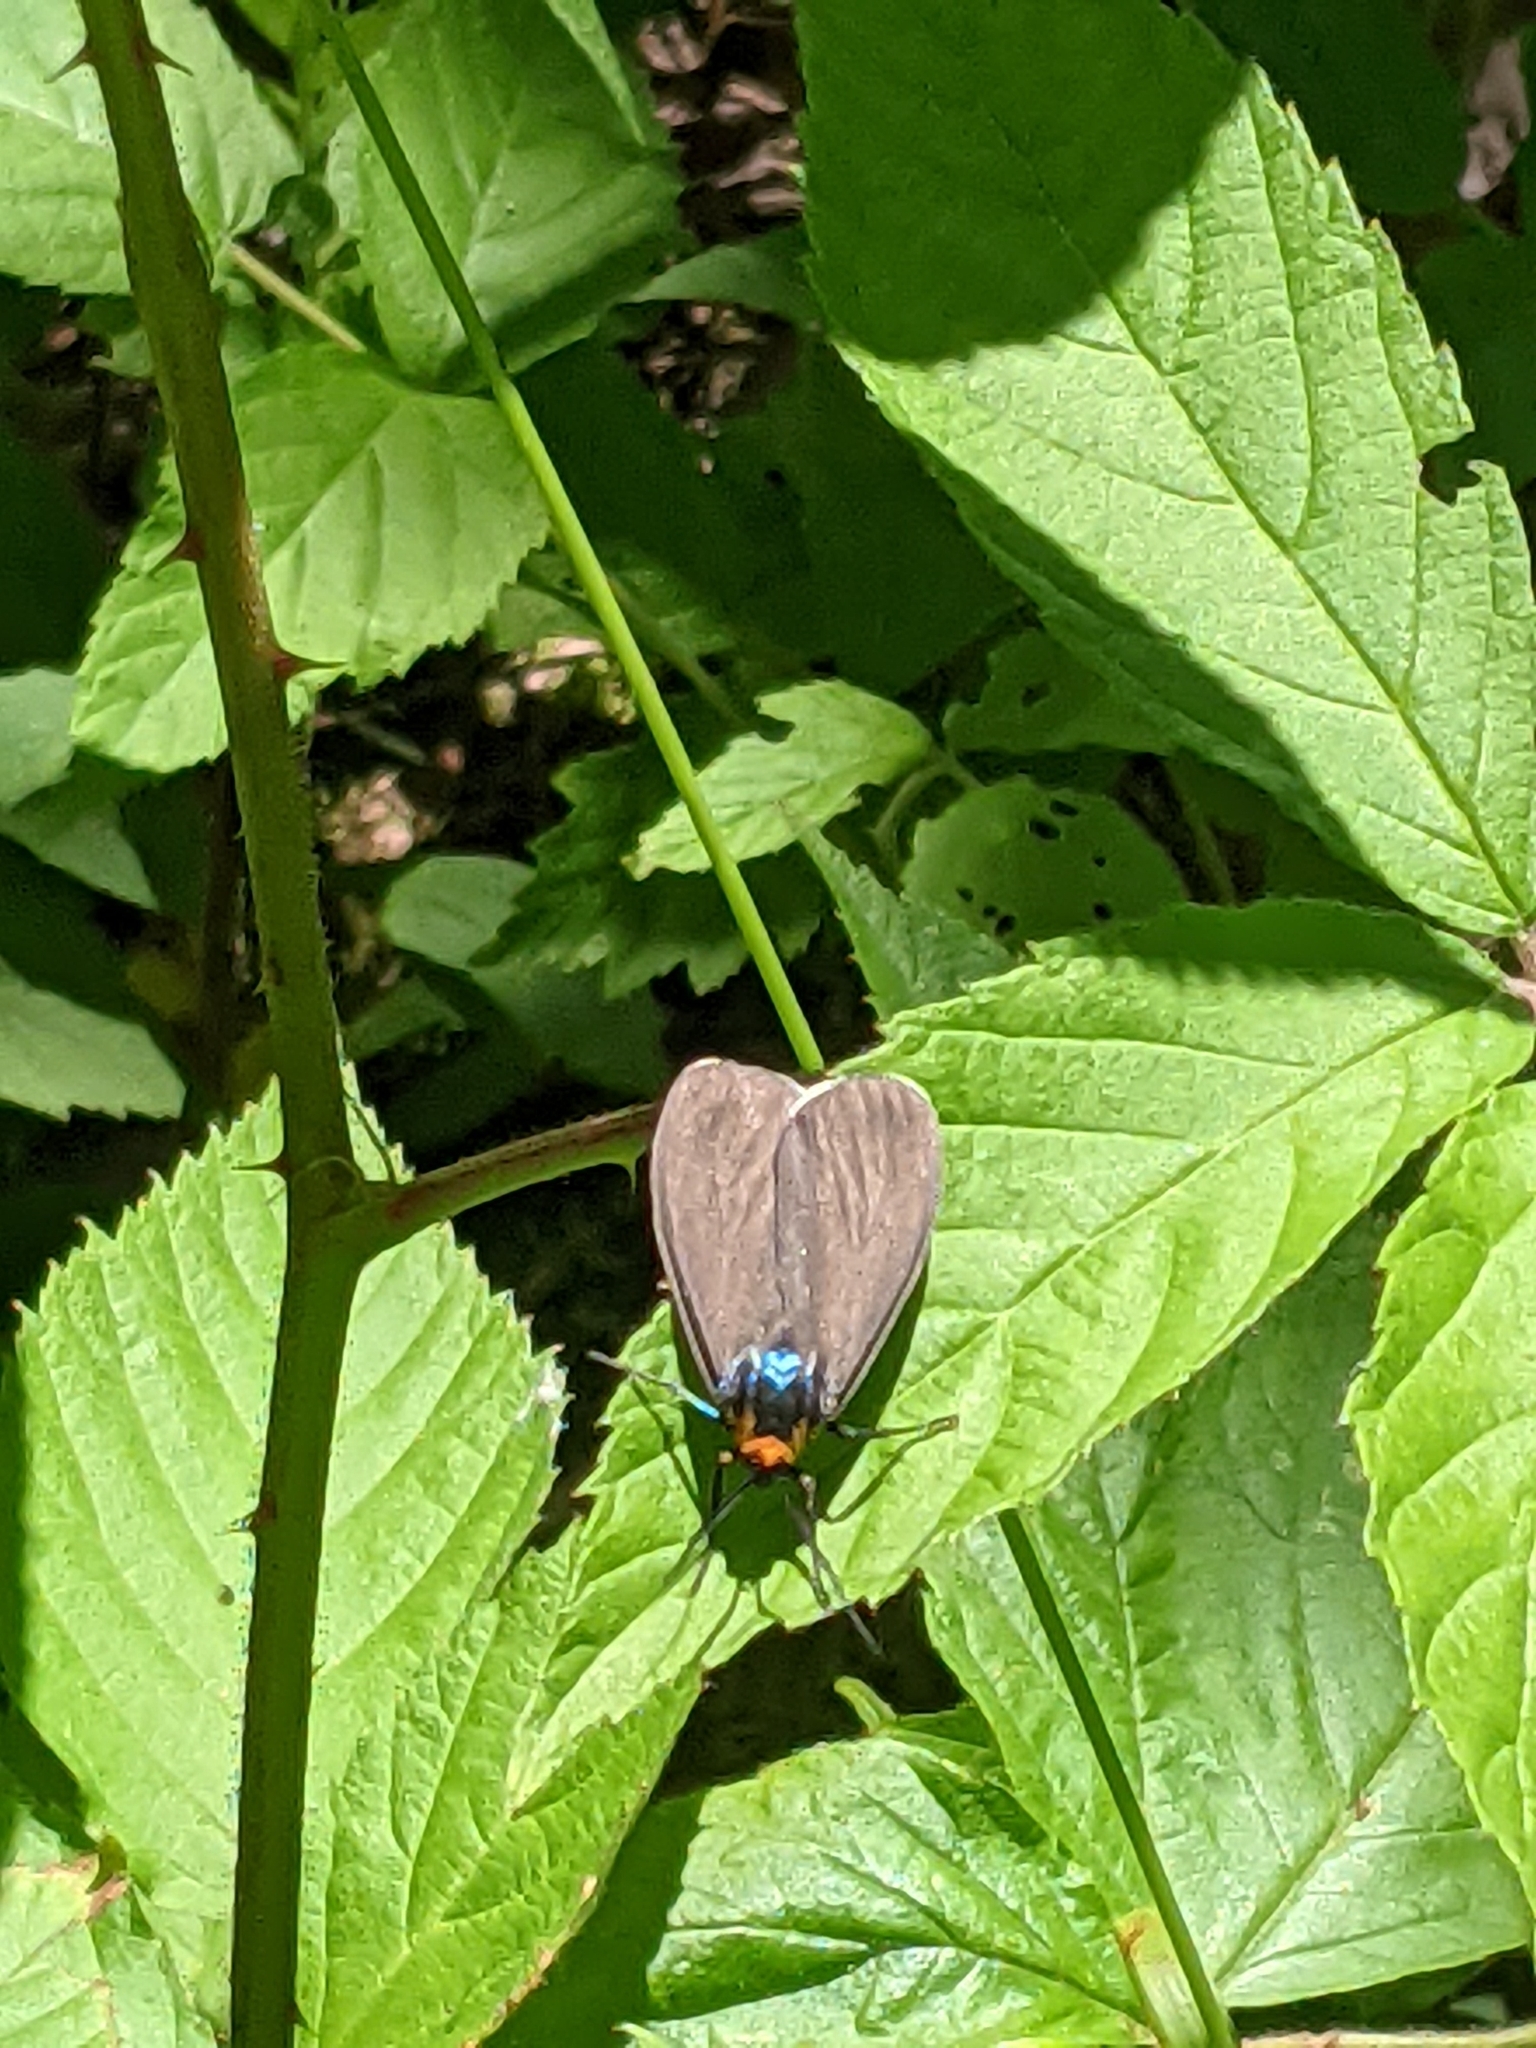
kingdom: Animalia
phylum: Arthropoda
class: Insecta
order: Lepidoptera
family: Erebidae
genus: Ctenucha
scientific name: Ctenucha virginica
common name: Virginia ctenucha moth
